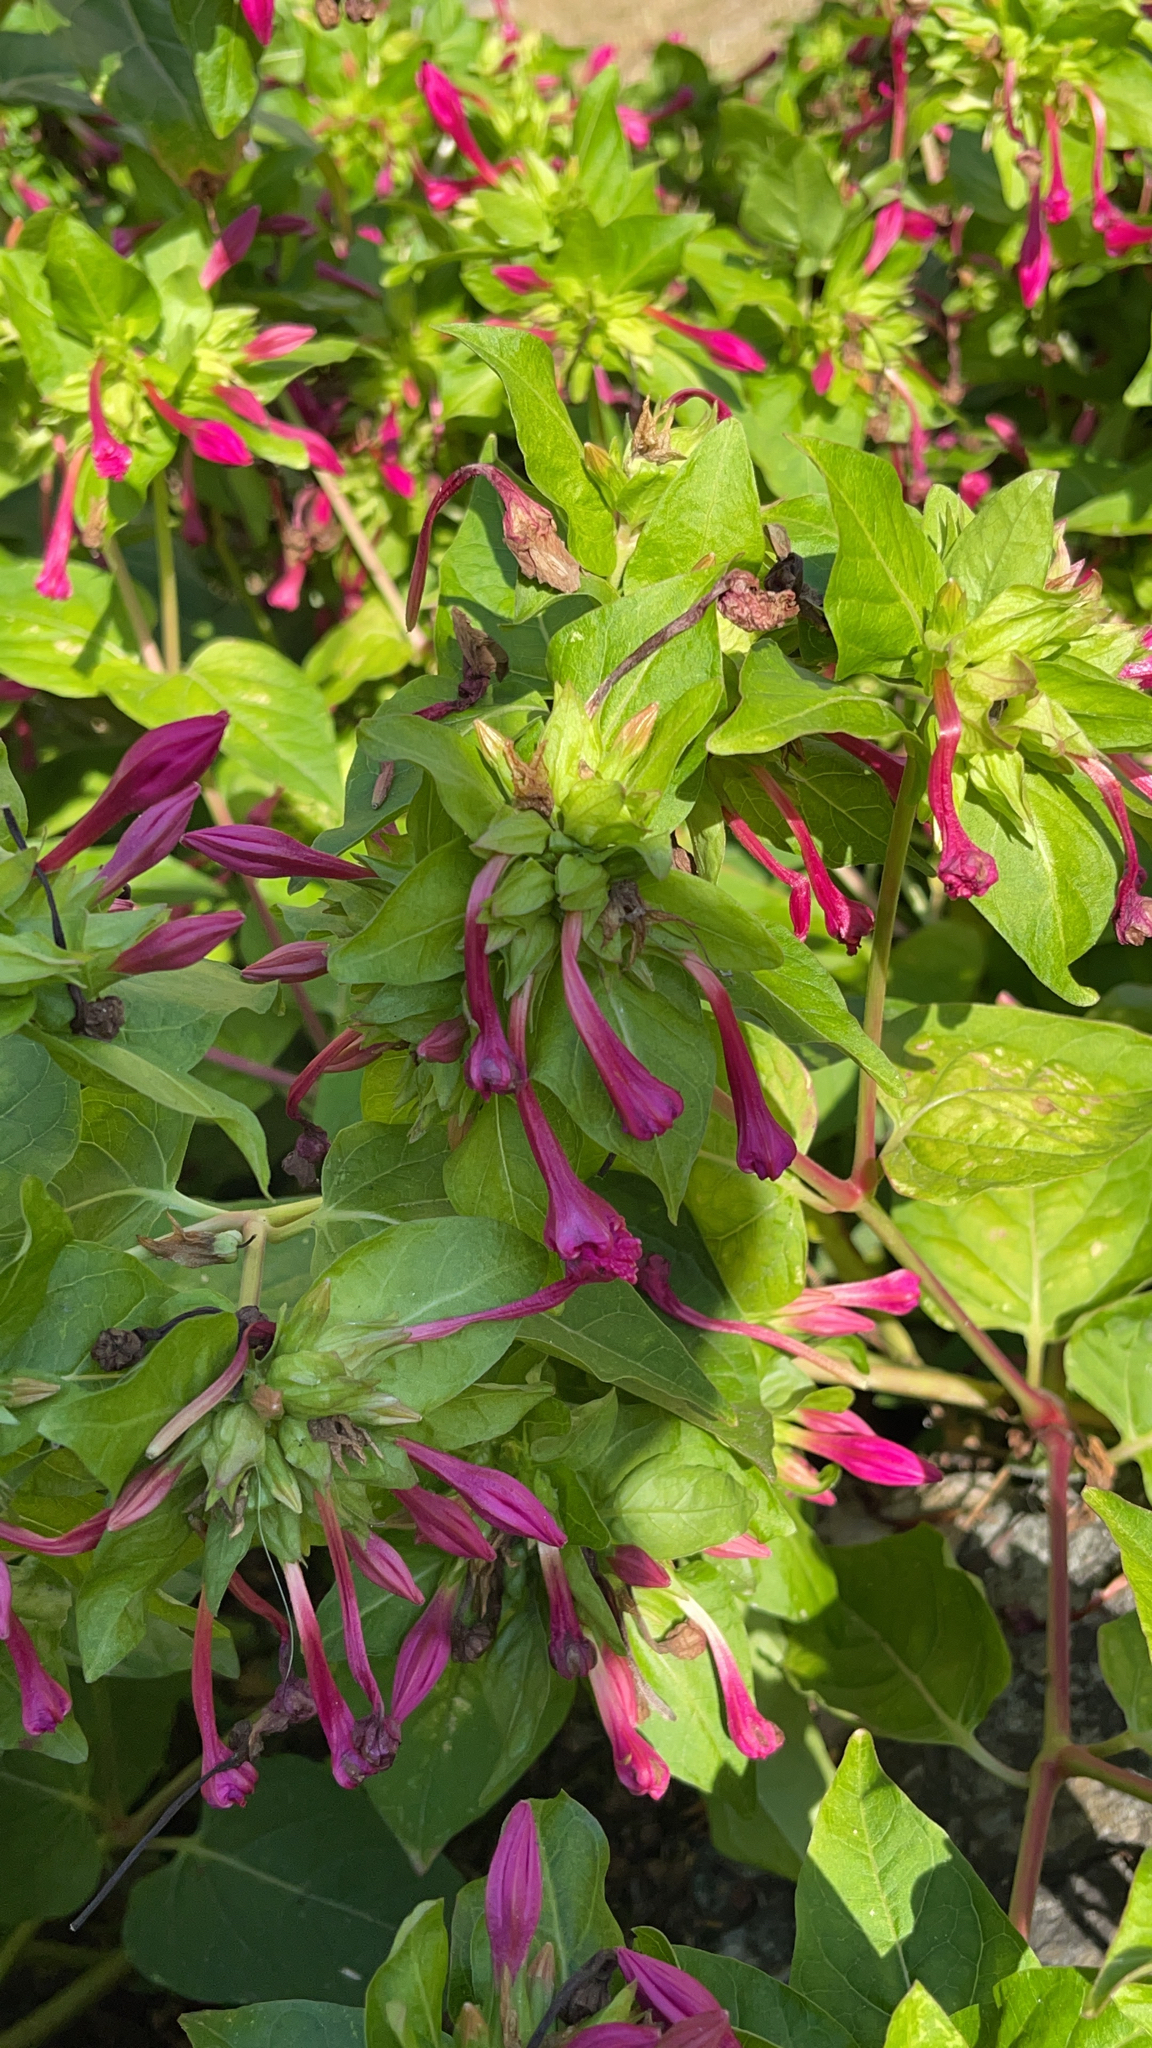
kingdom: Plantae
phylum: Tracheophyta
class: Magnoliopsida
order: Caryophyllales
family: Nyctaginaceae
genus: Mirabilis
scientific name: Mirabilis jalapa
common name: Marvel-of-peru
